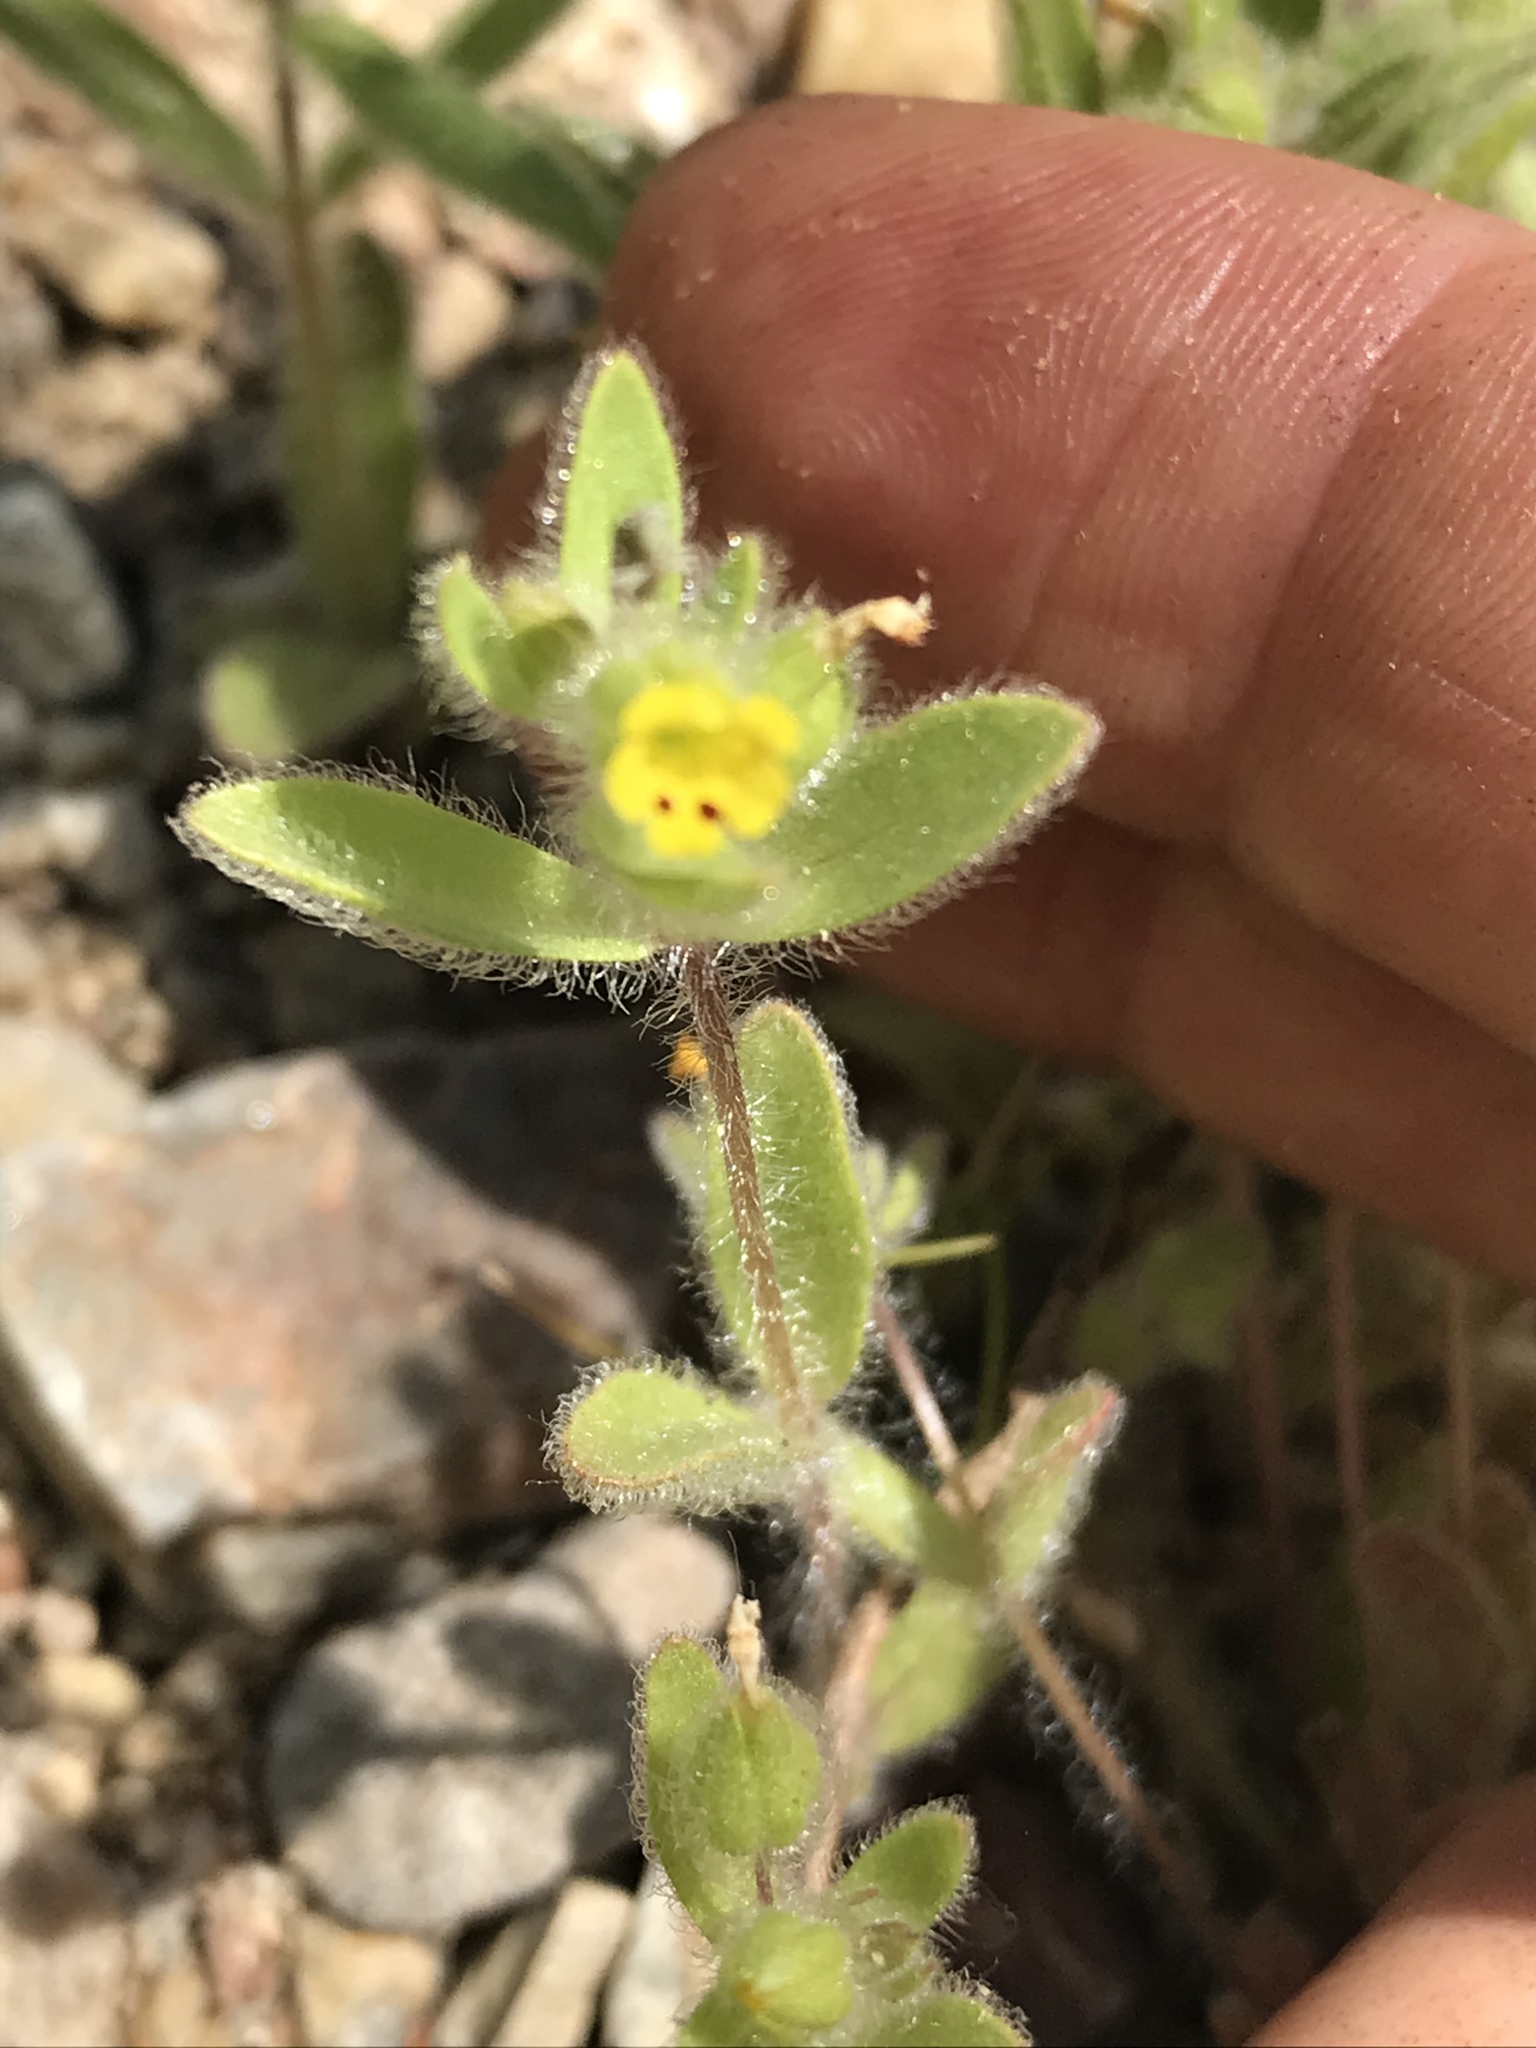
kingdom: Plantae
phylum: Tracheophyta
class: Magnoliopsida
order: Lamiales
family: Phrymaceae
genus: Mimetanthe
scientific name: Mimetanthe pilosa
